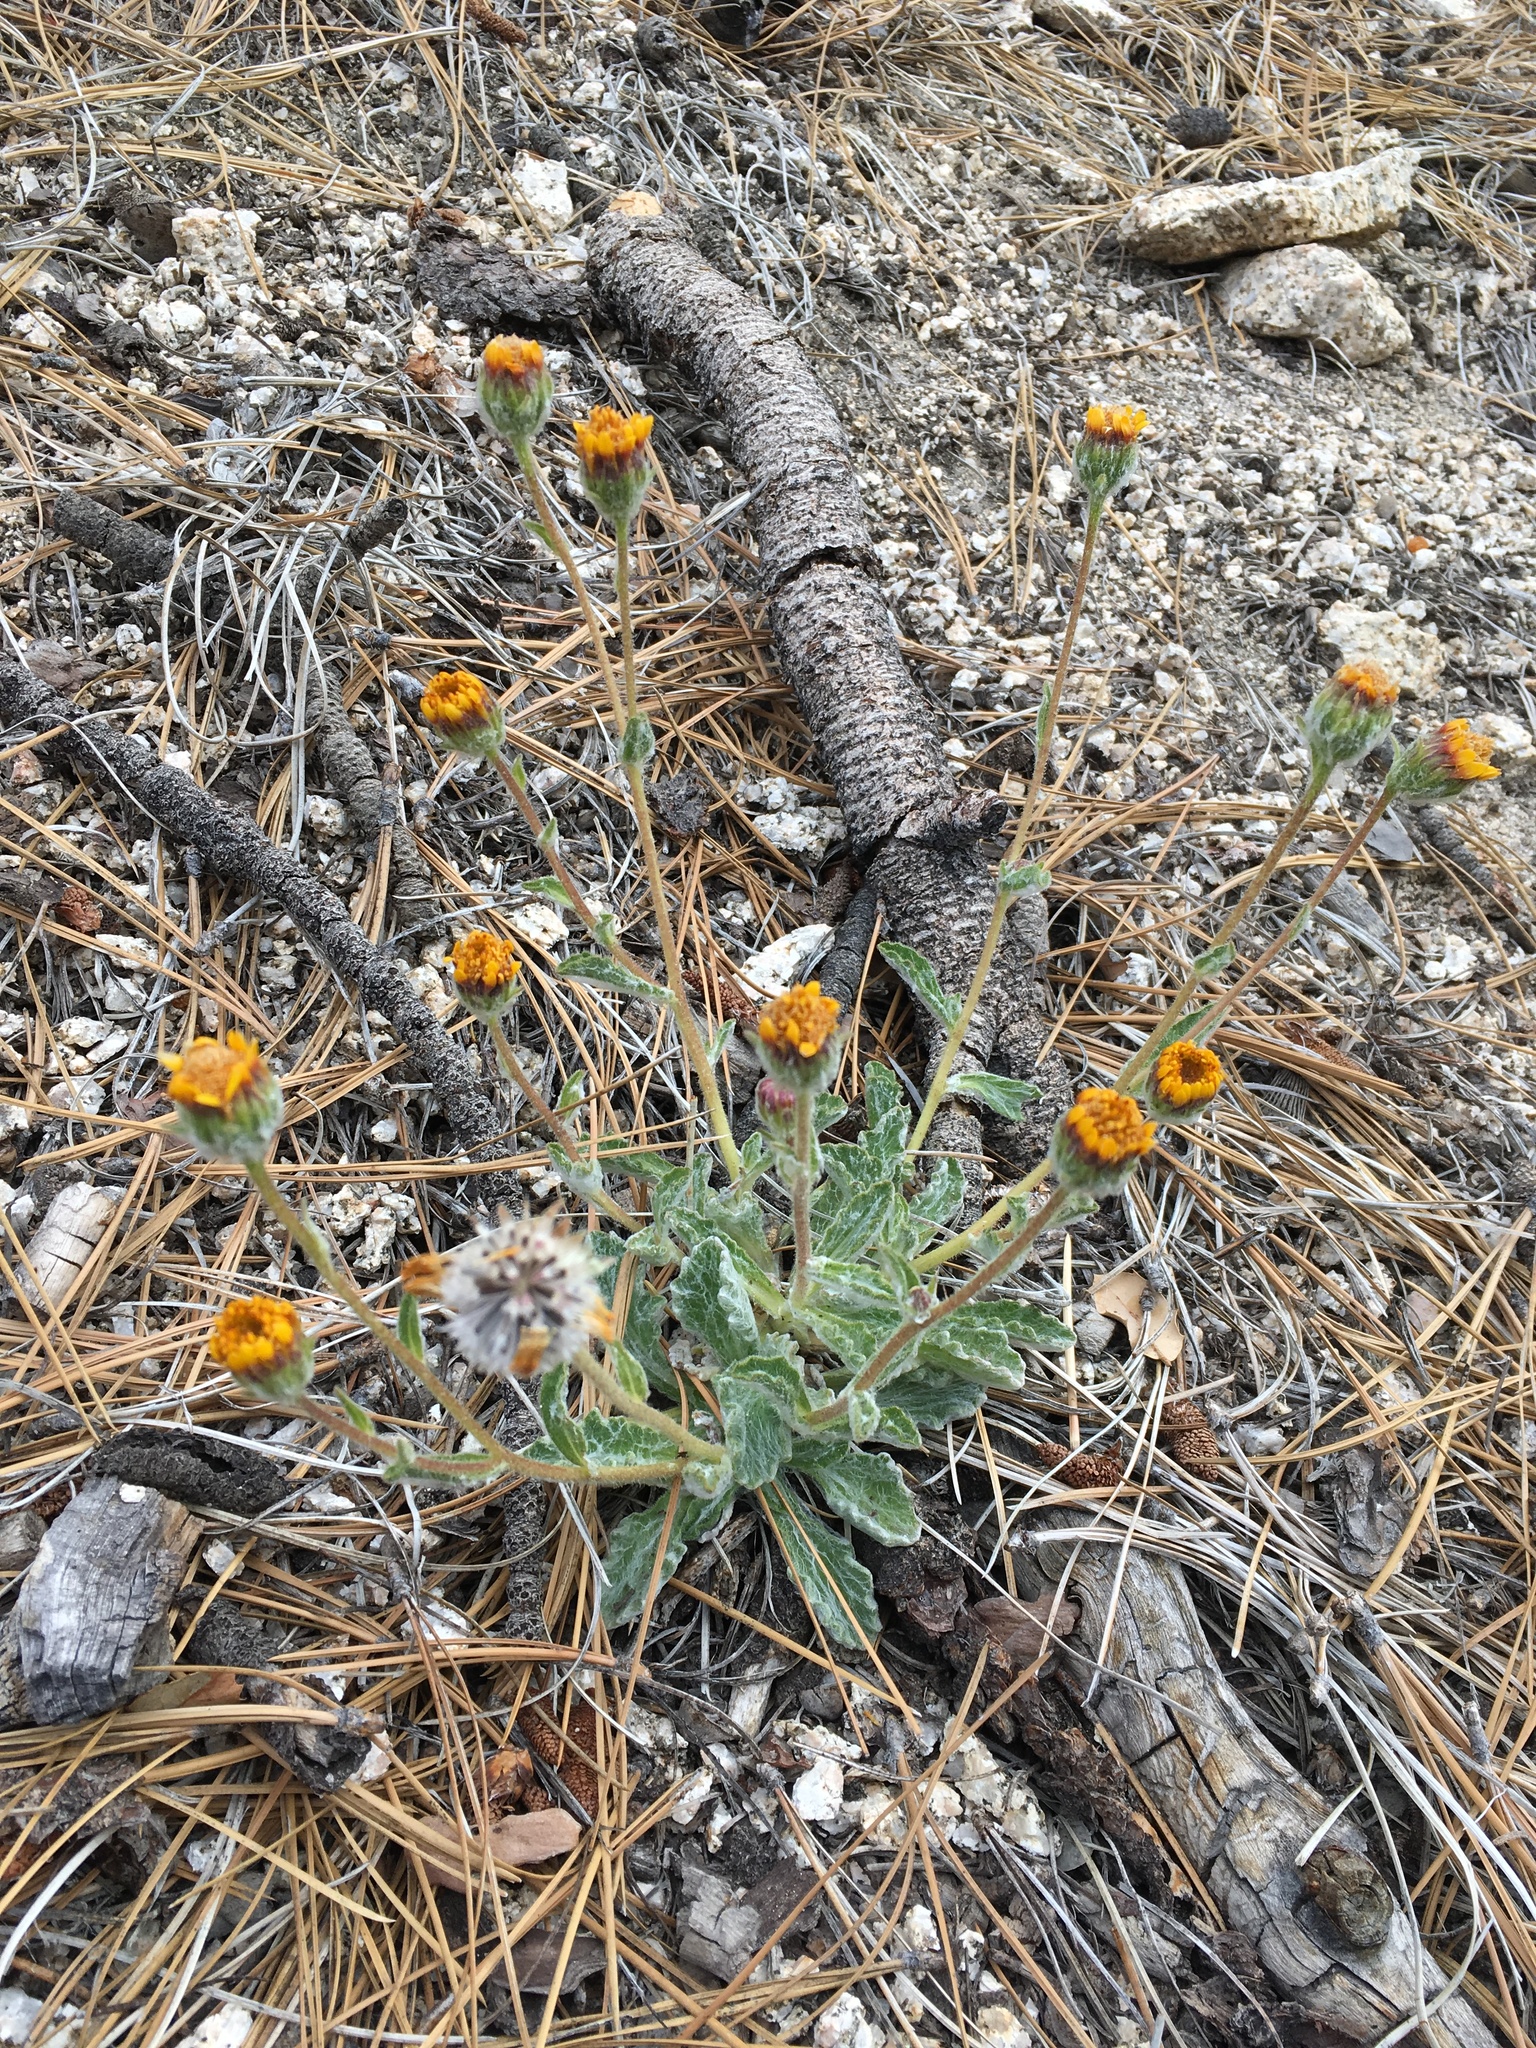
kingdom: Plantae
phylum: Tracheophyta
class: Magnoliopsida
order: Asterales
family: Asteraceae
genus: Hulsea
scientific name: Hulsea vestita
